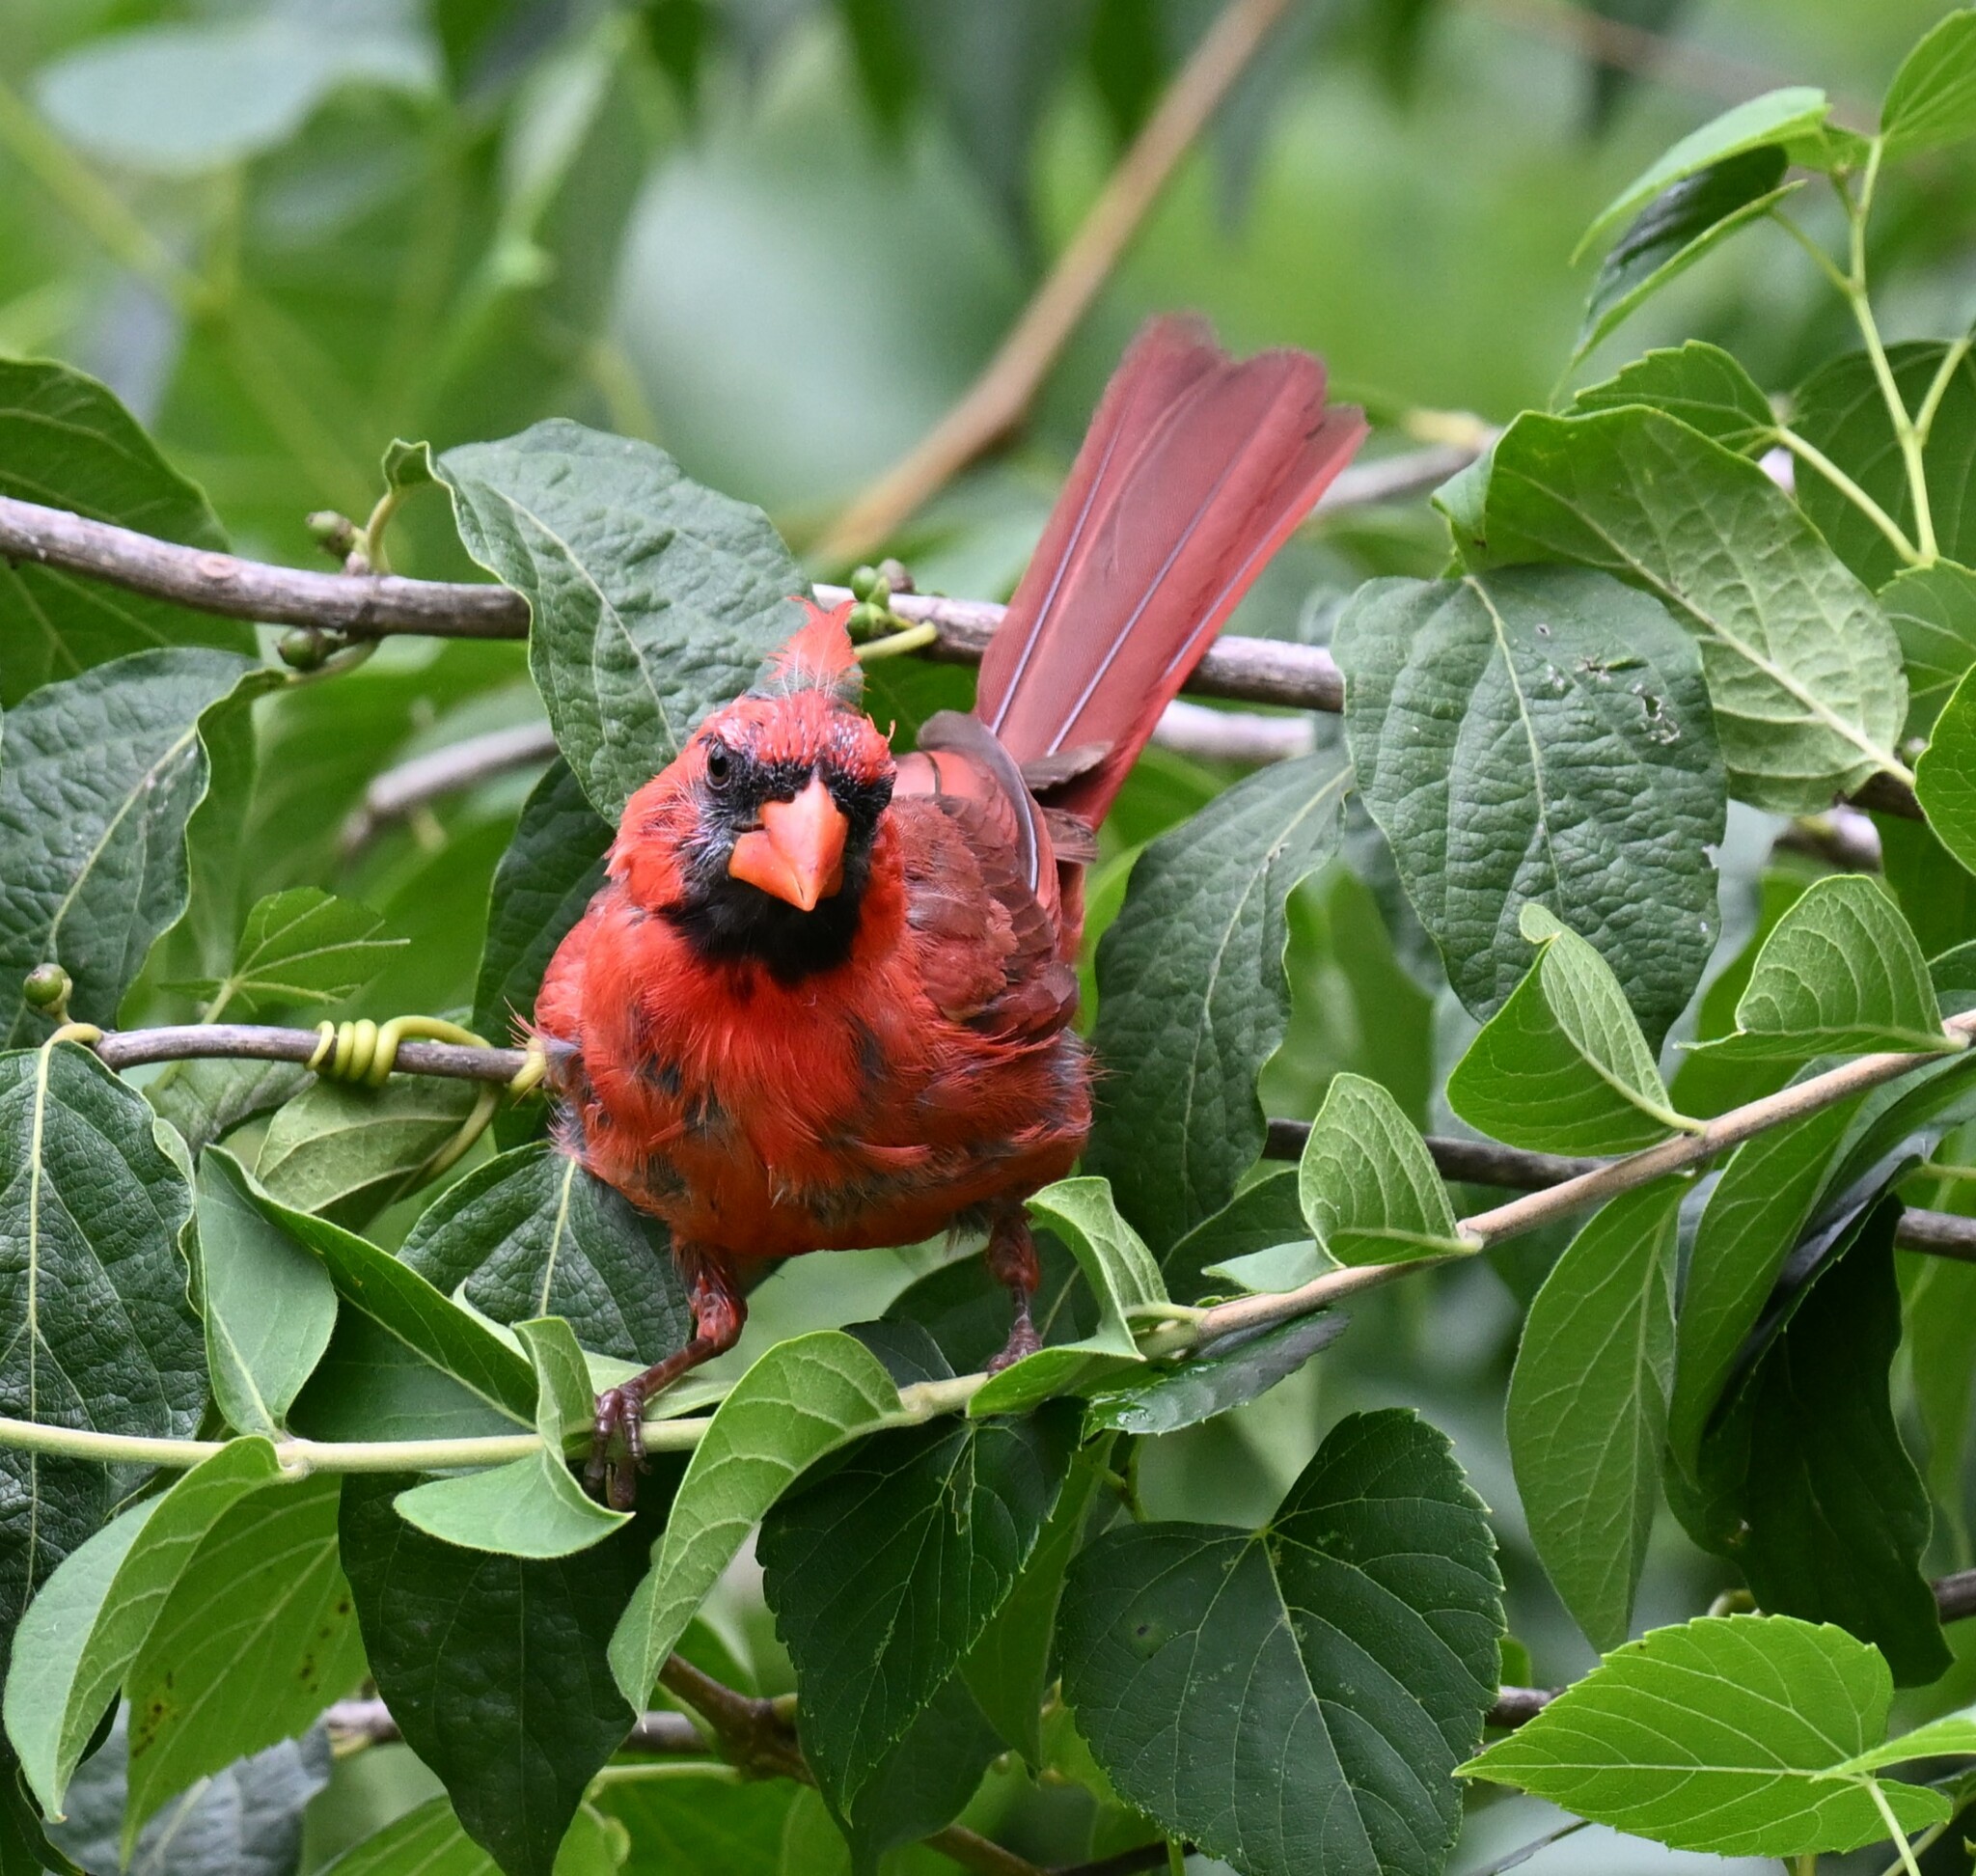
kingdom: Animalia
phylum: Chordata
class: Aves
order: Passeriformes
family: Cardinalidae
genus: Cardinalis
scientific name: Cardinalis cardinalis
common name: Northern cardinal
